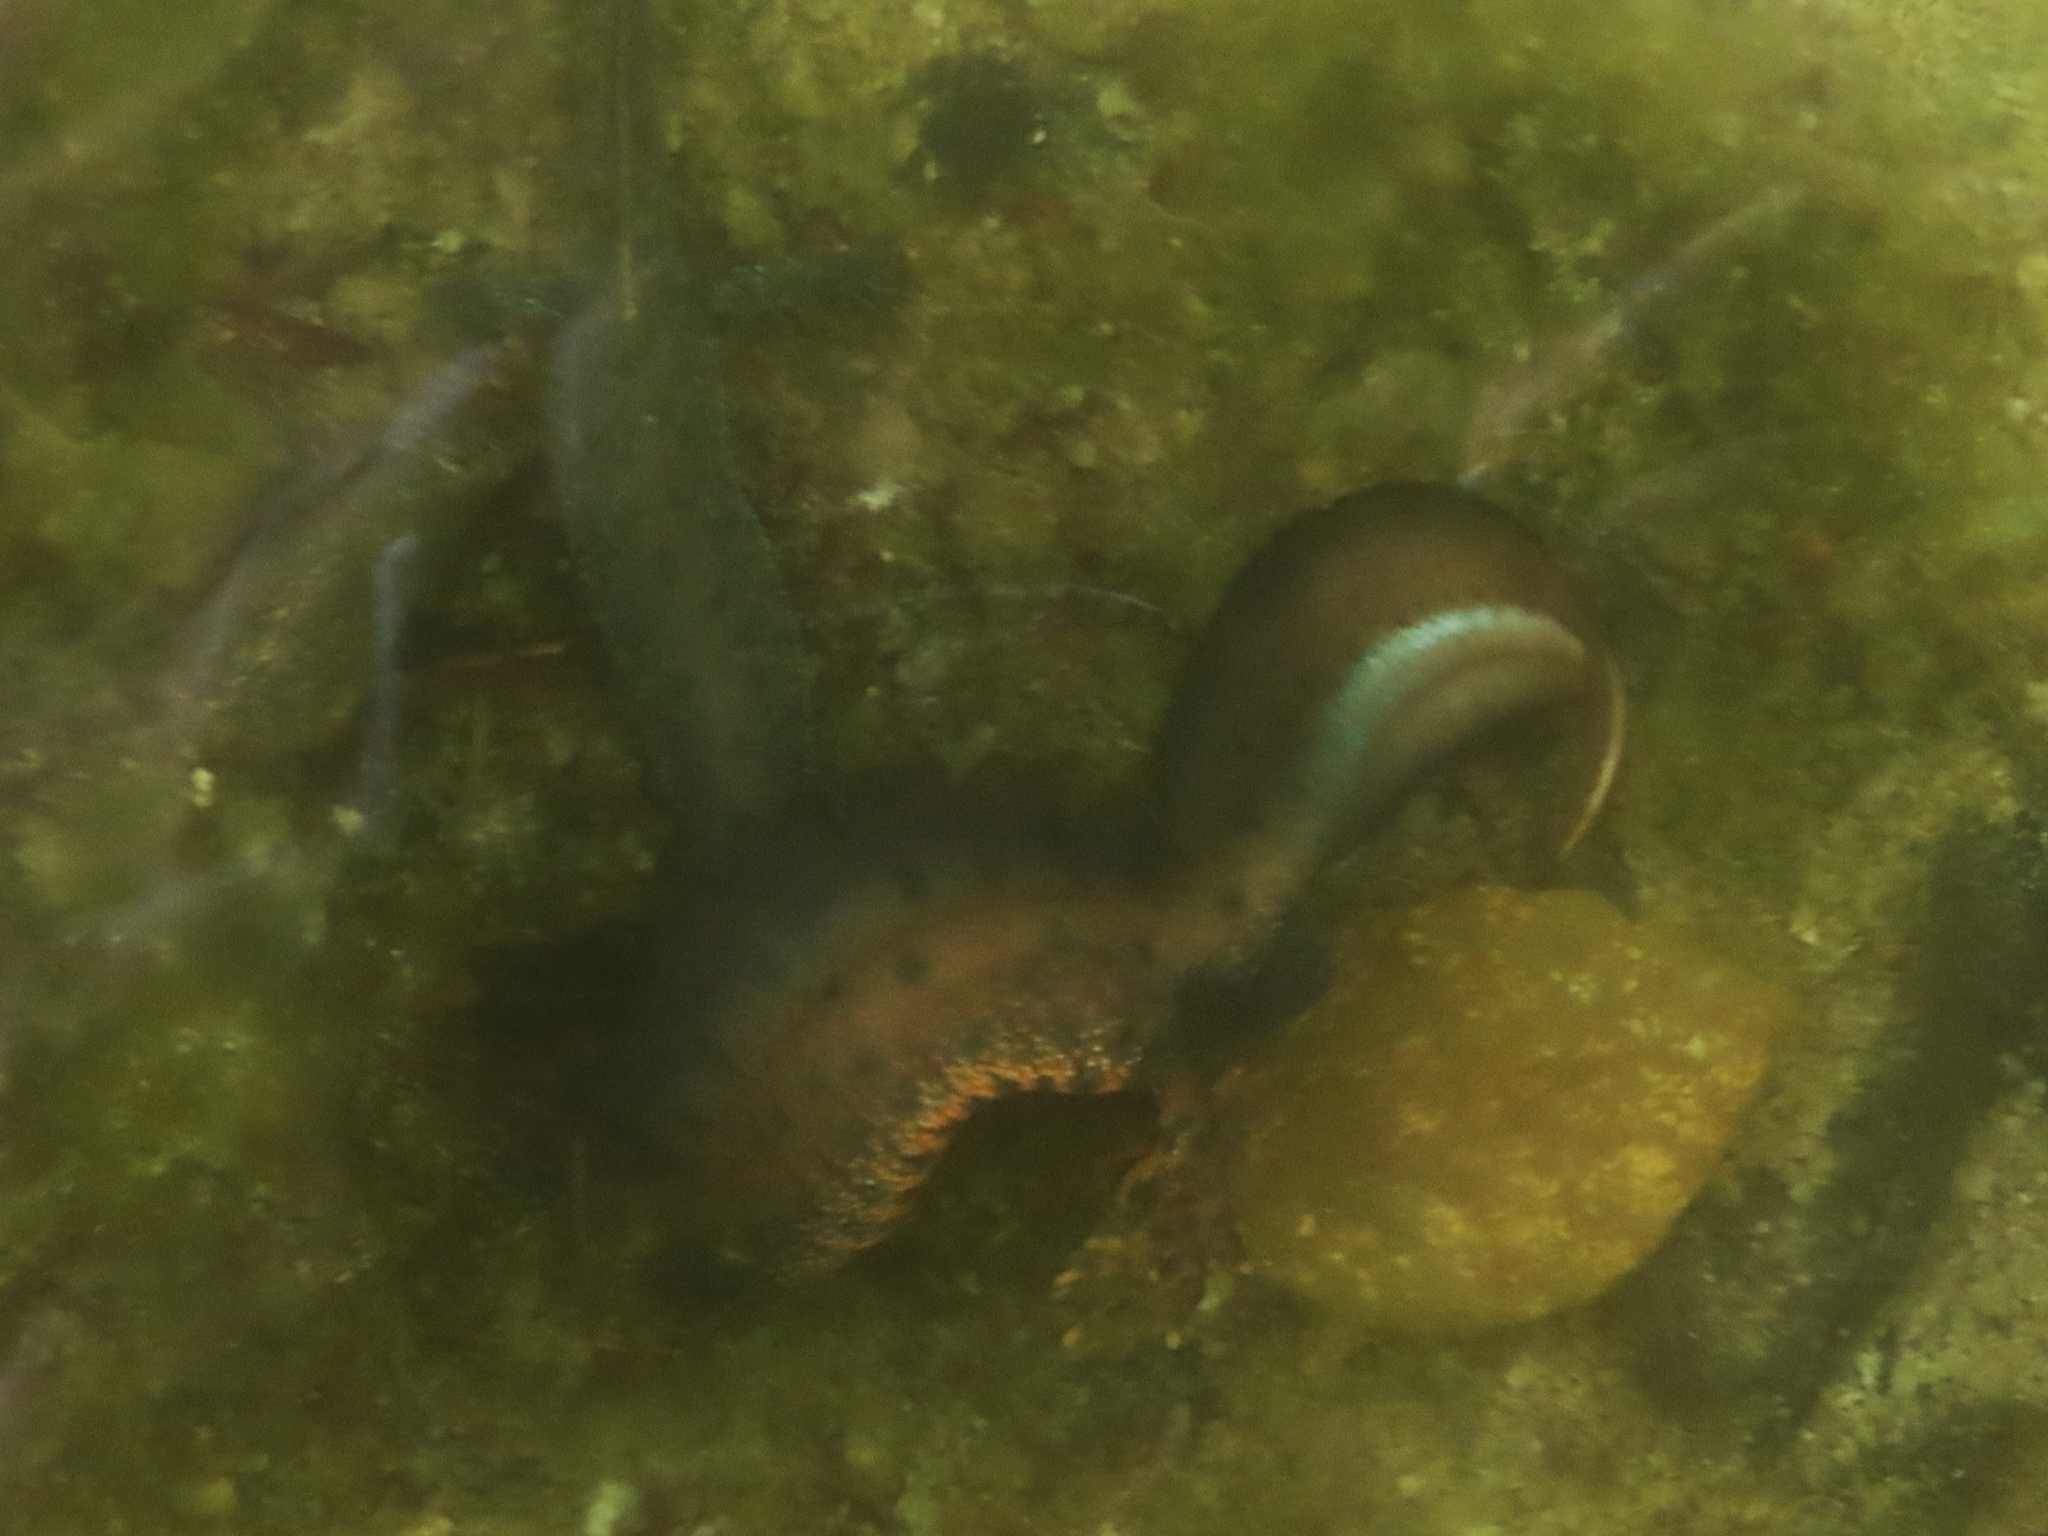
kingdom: Animalia
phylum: Chordata
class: Amphibia
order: Caudata
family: Salamandridae
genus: Triturus
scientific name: Triturus cristatus
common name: Crested newt
